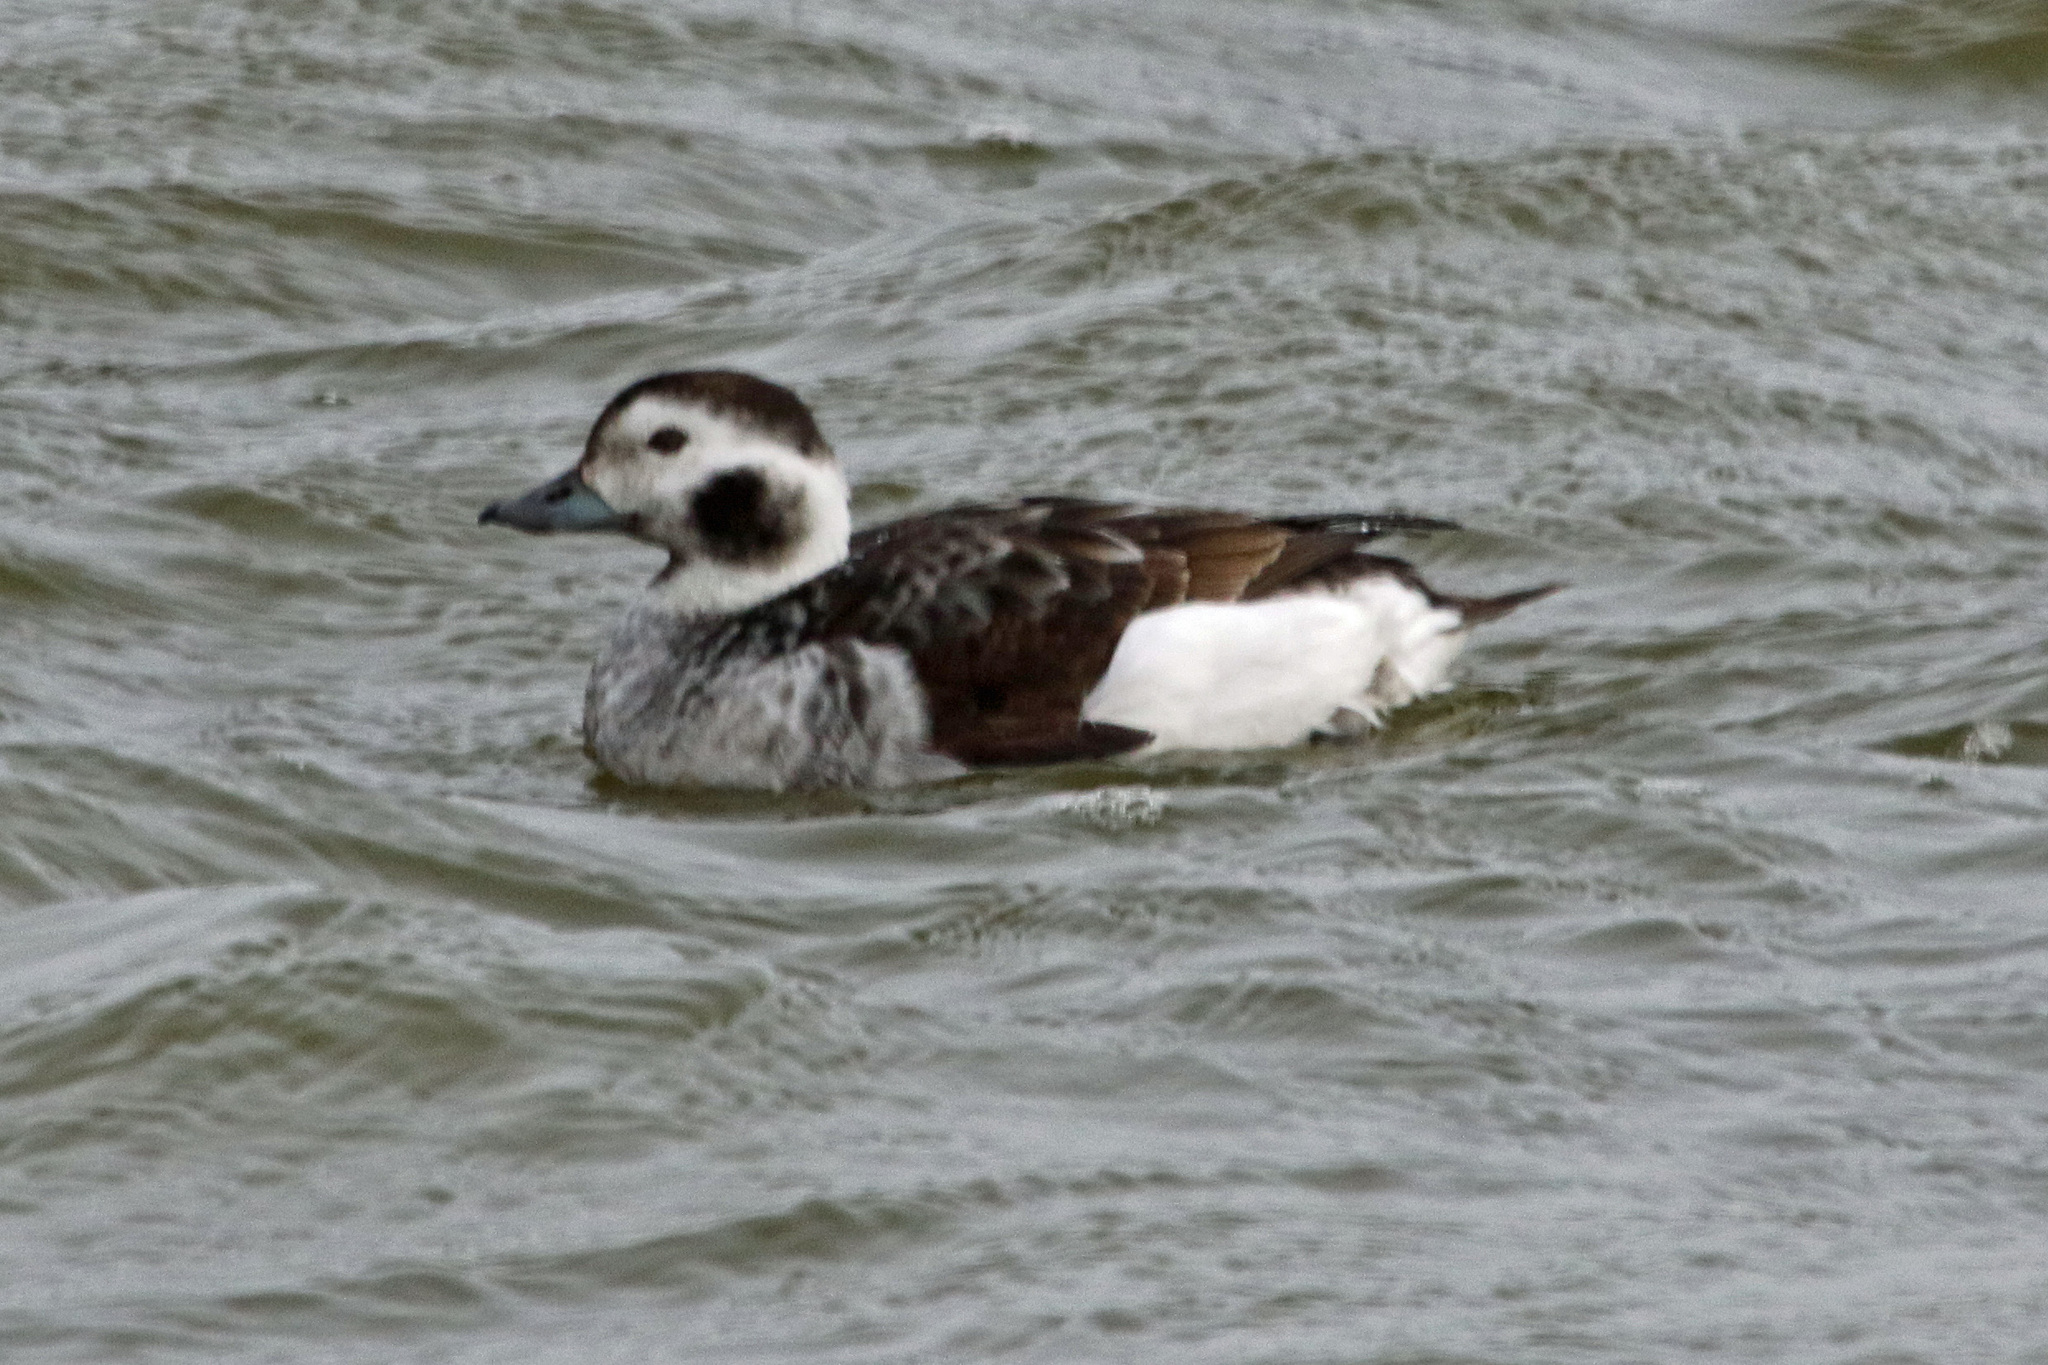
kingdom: Animalia
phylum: Chordata
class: Aves
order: Anseriformes
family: Anatidae
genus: Clangula
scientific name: Clangula hyemalis
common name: Long-tailed duck
